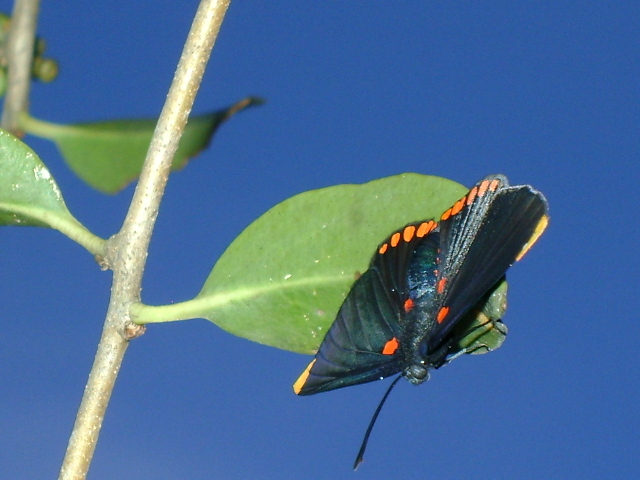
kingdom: Animalia
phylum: Arthropoda
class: Insecta
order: Lepidoptera
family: Lycaenidae
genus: Melanis
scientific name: Melanis pixe
